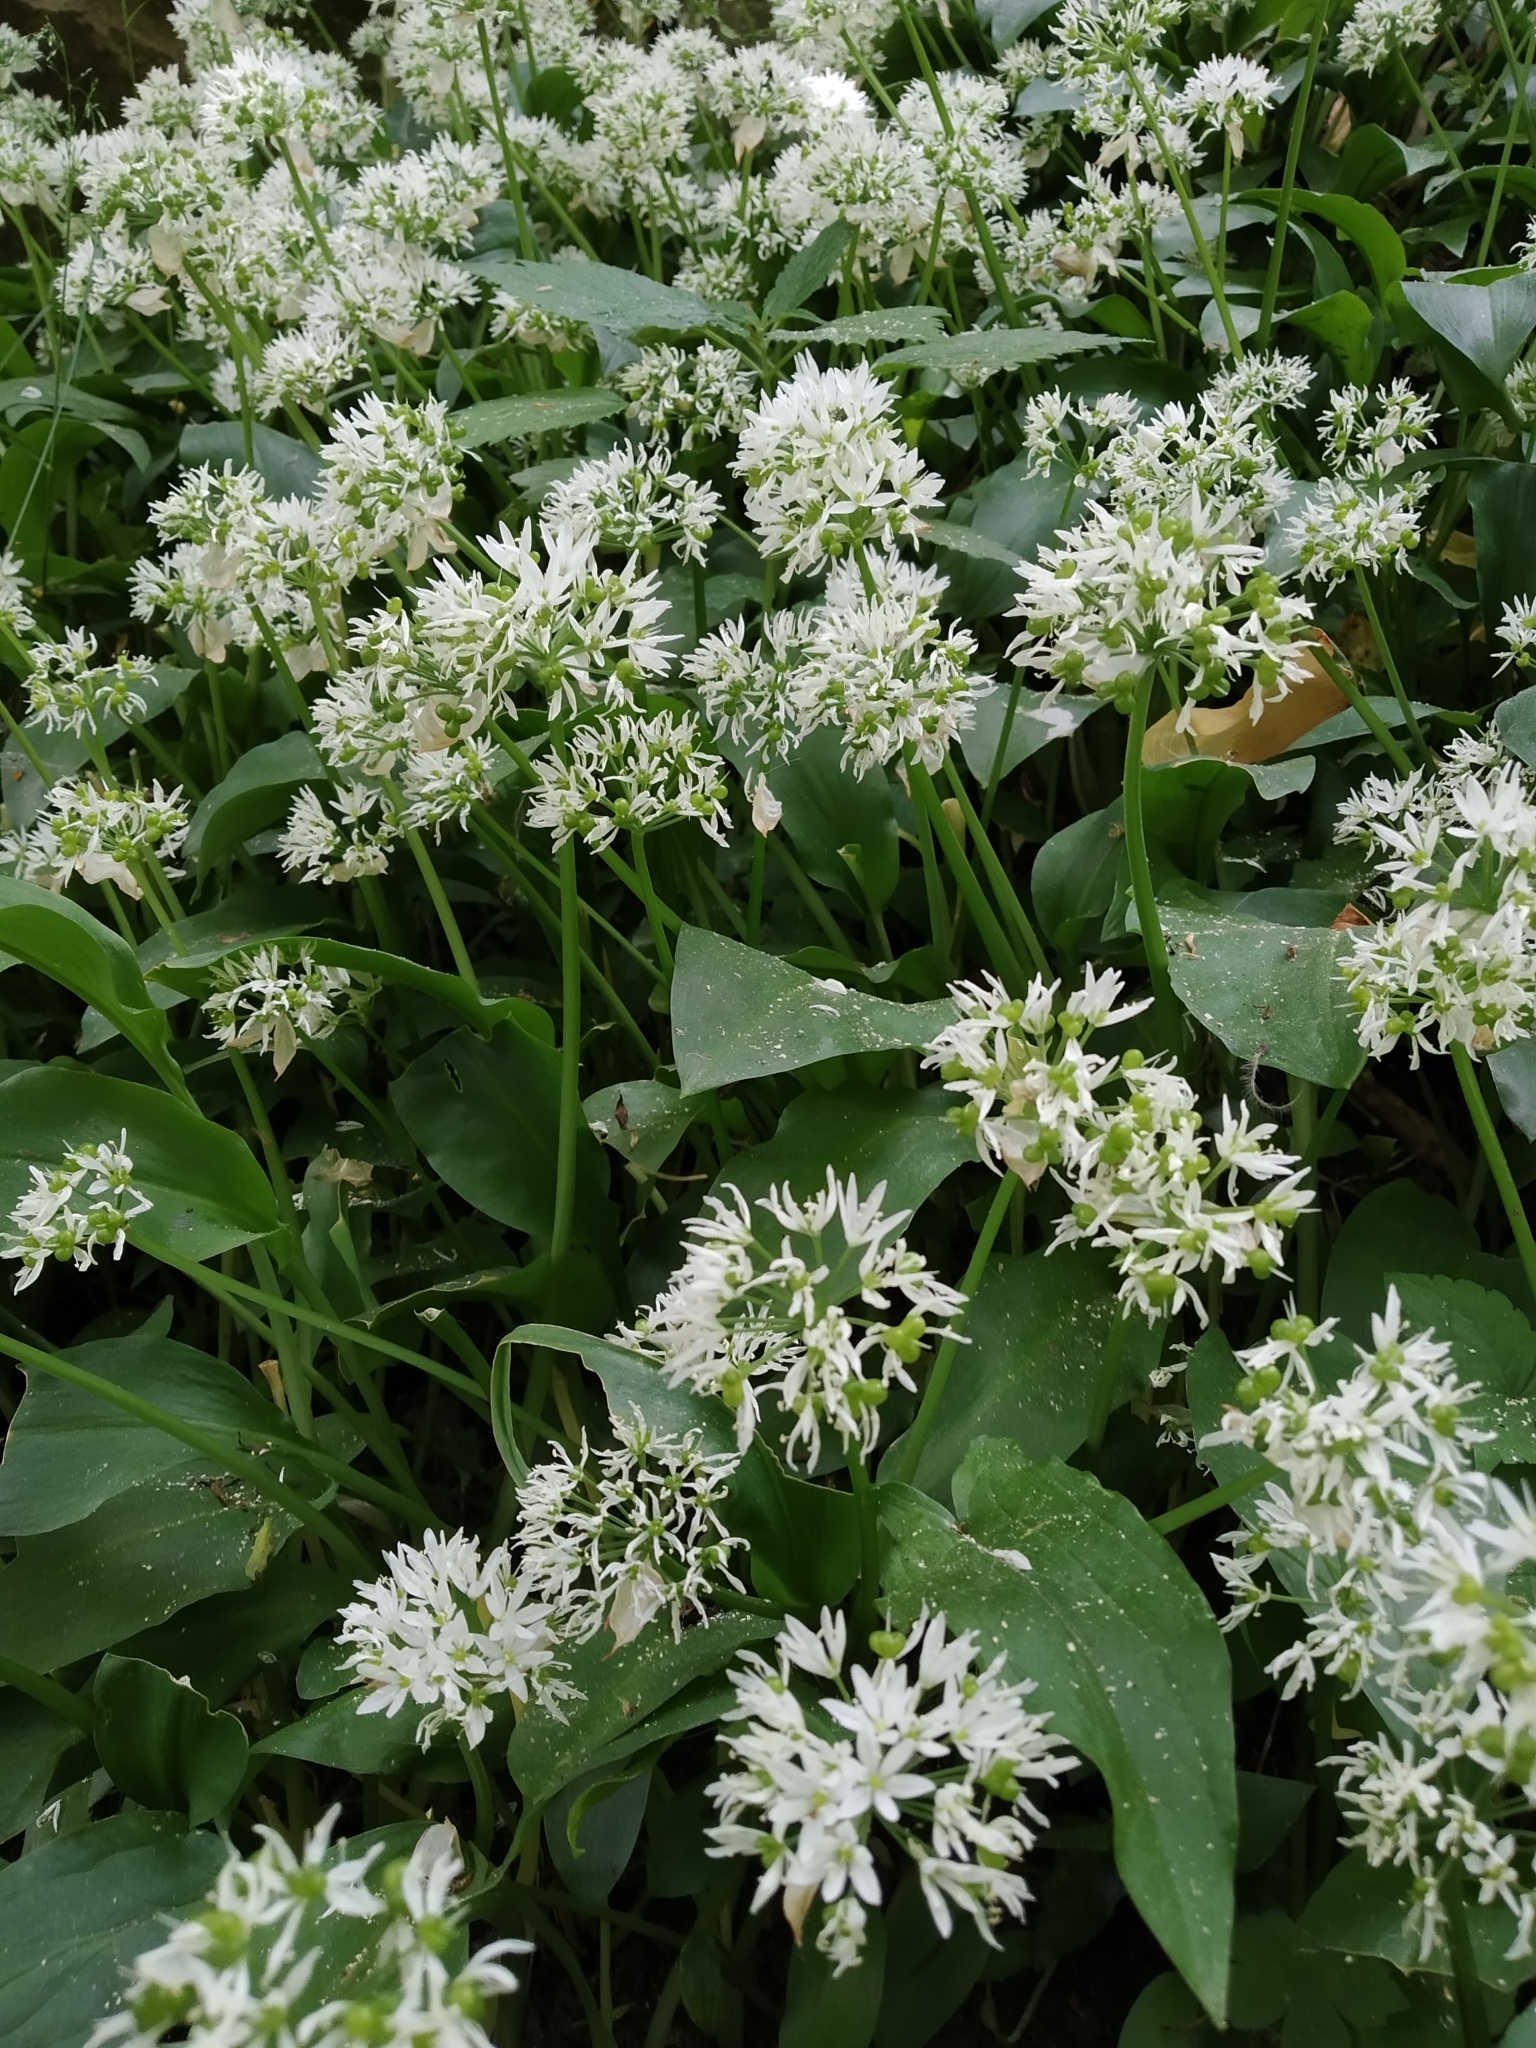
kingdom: Plantae
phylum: Tracheophyta
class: Liliopsida
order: Asparagales
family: Amaryllidaceae
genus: Allium
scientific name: Allium ursinum
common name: Ramsons
